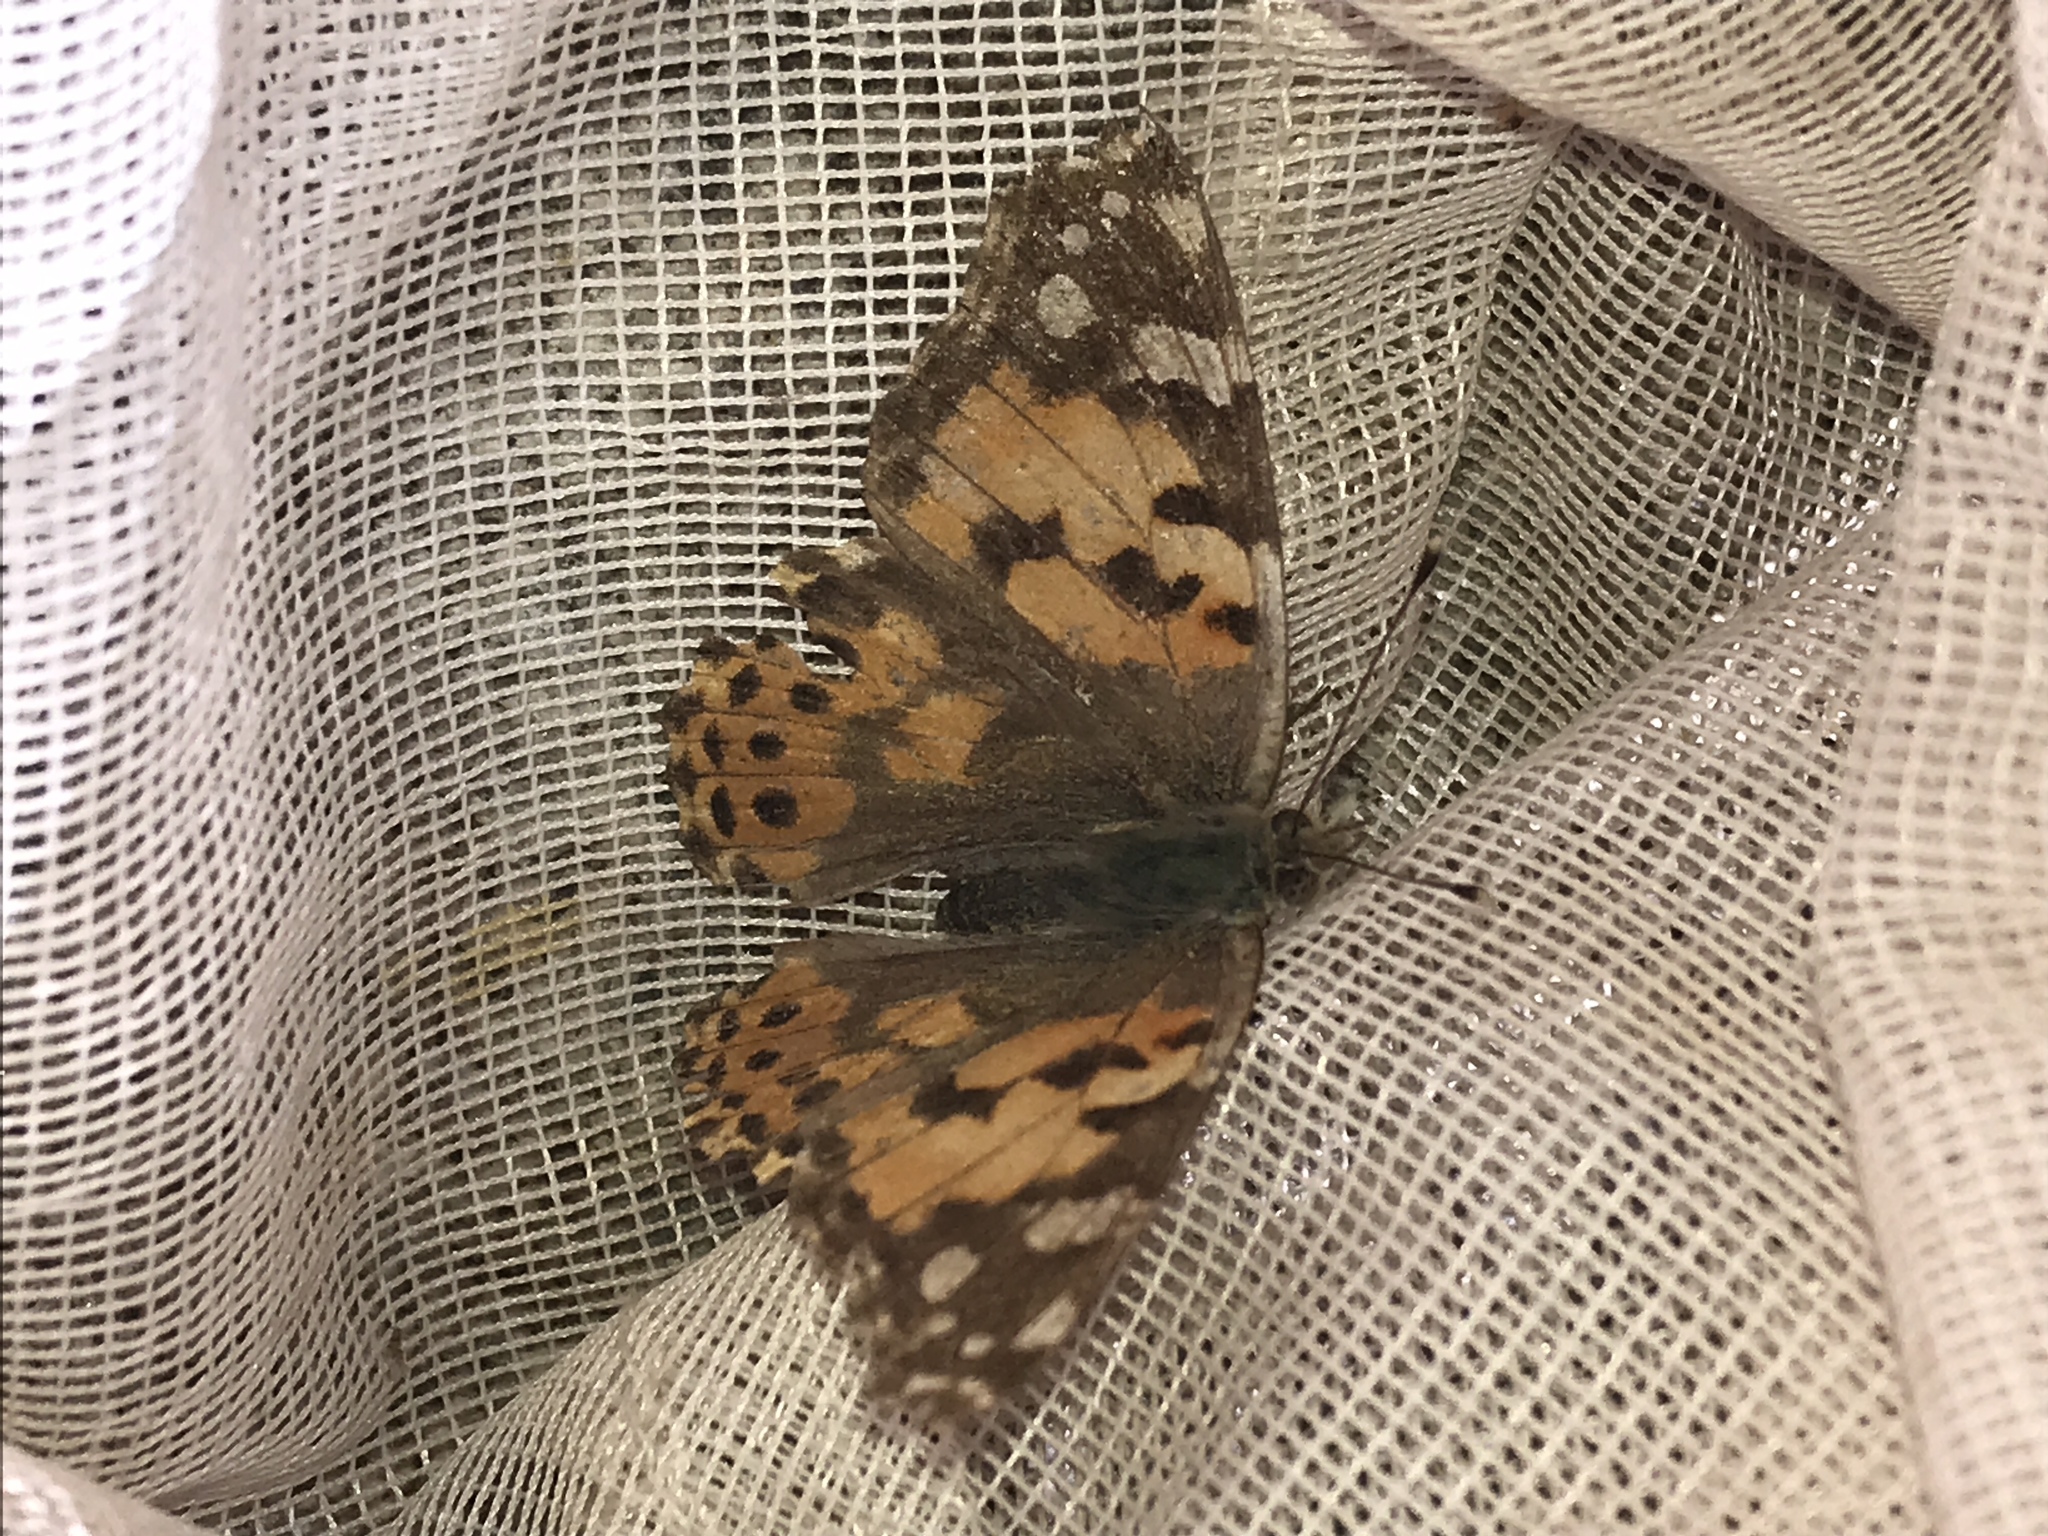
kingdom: Animalia
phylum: Arthropoda
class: Insecta
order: Lepidoptera
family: Nymphalidae
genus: Vanessa
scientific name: Vanessa cardui
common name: Painted lady
